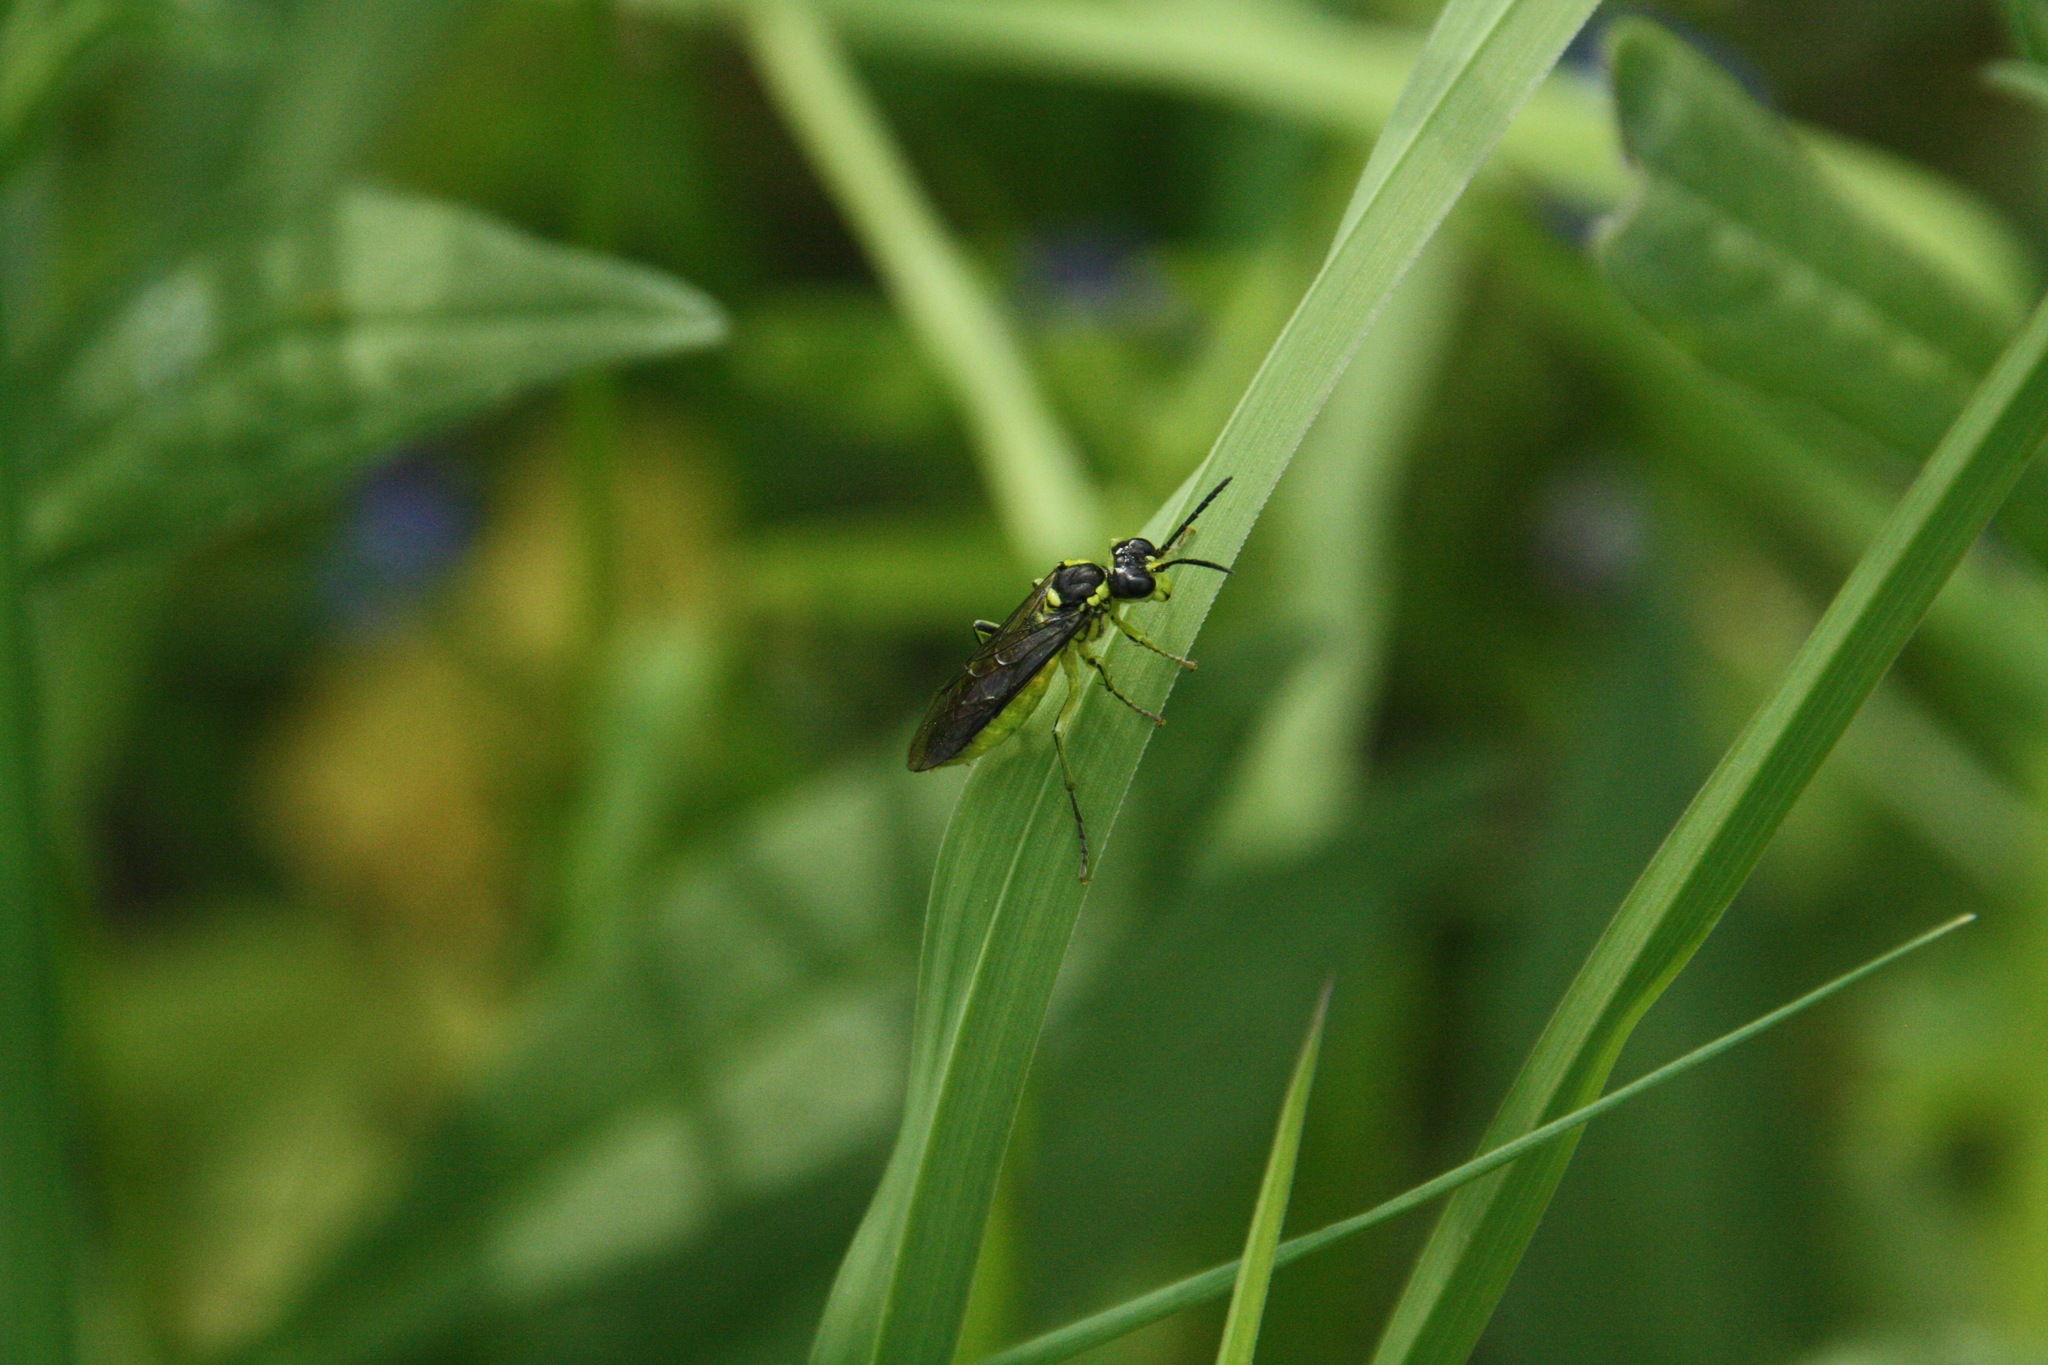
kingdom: Animalia
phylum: Arthropoda
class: Insecta
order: Hymenoptera
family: Tenthredinidae
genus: Tenthredo
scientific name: Tenthredo mesomela
